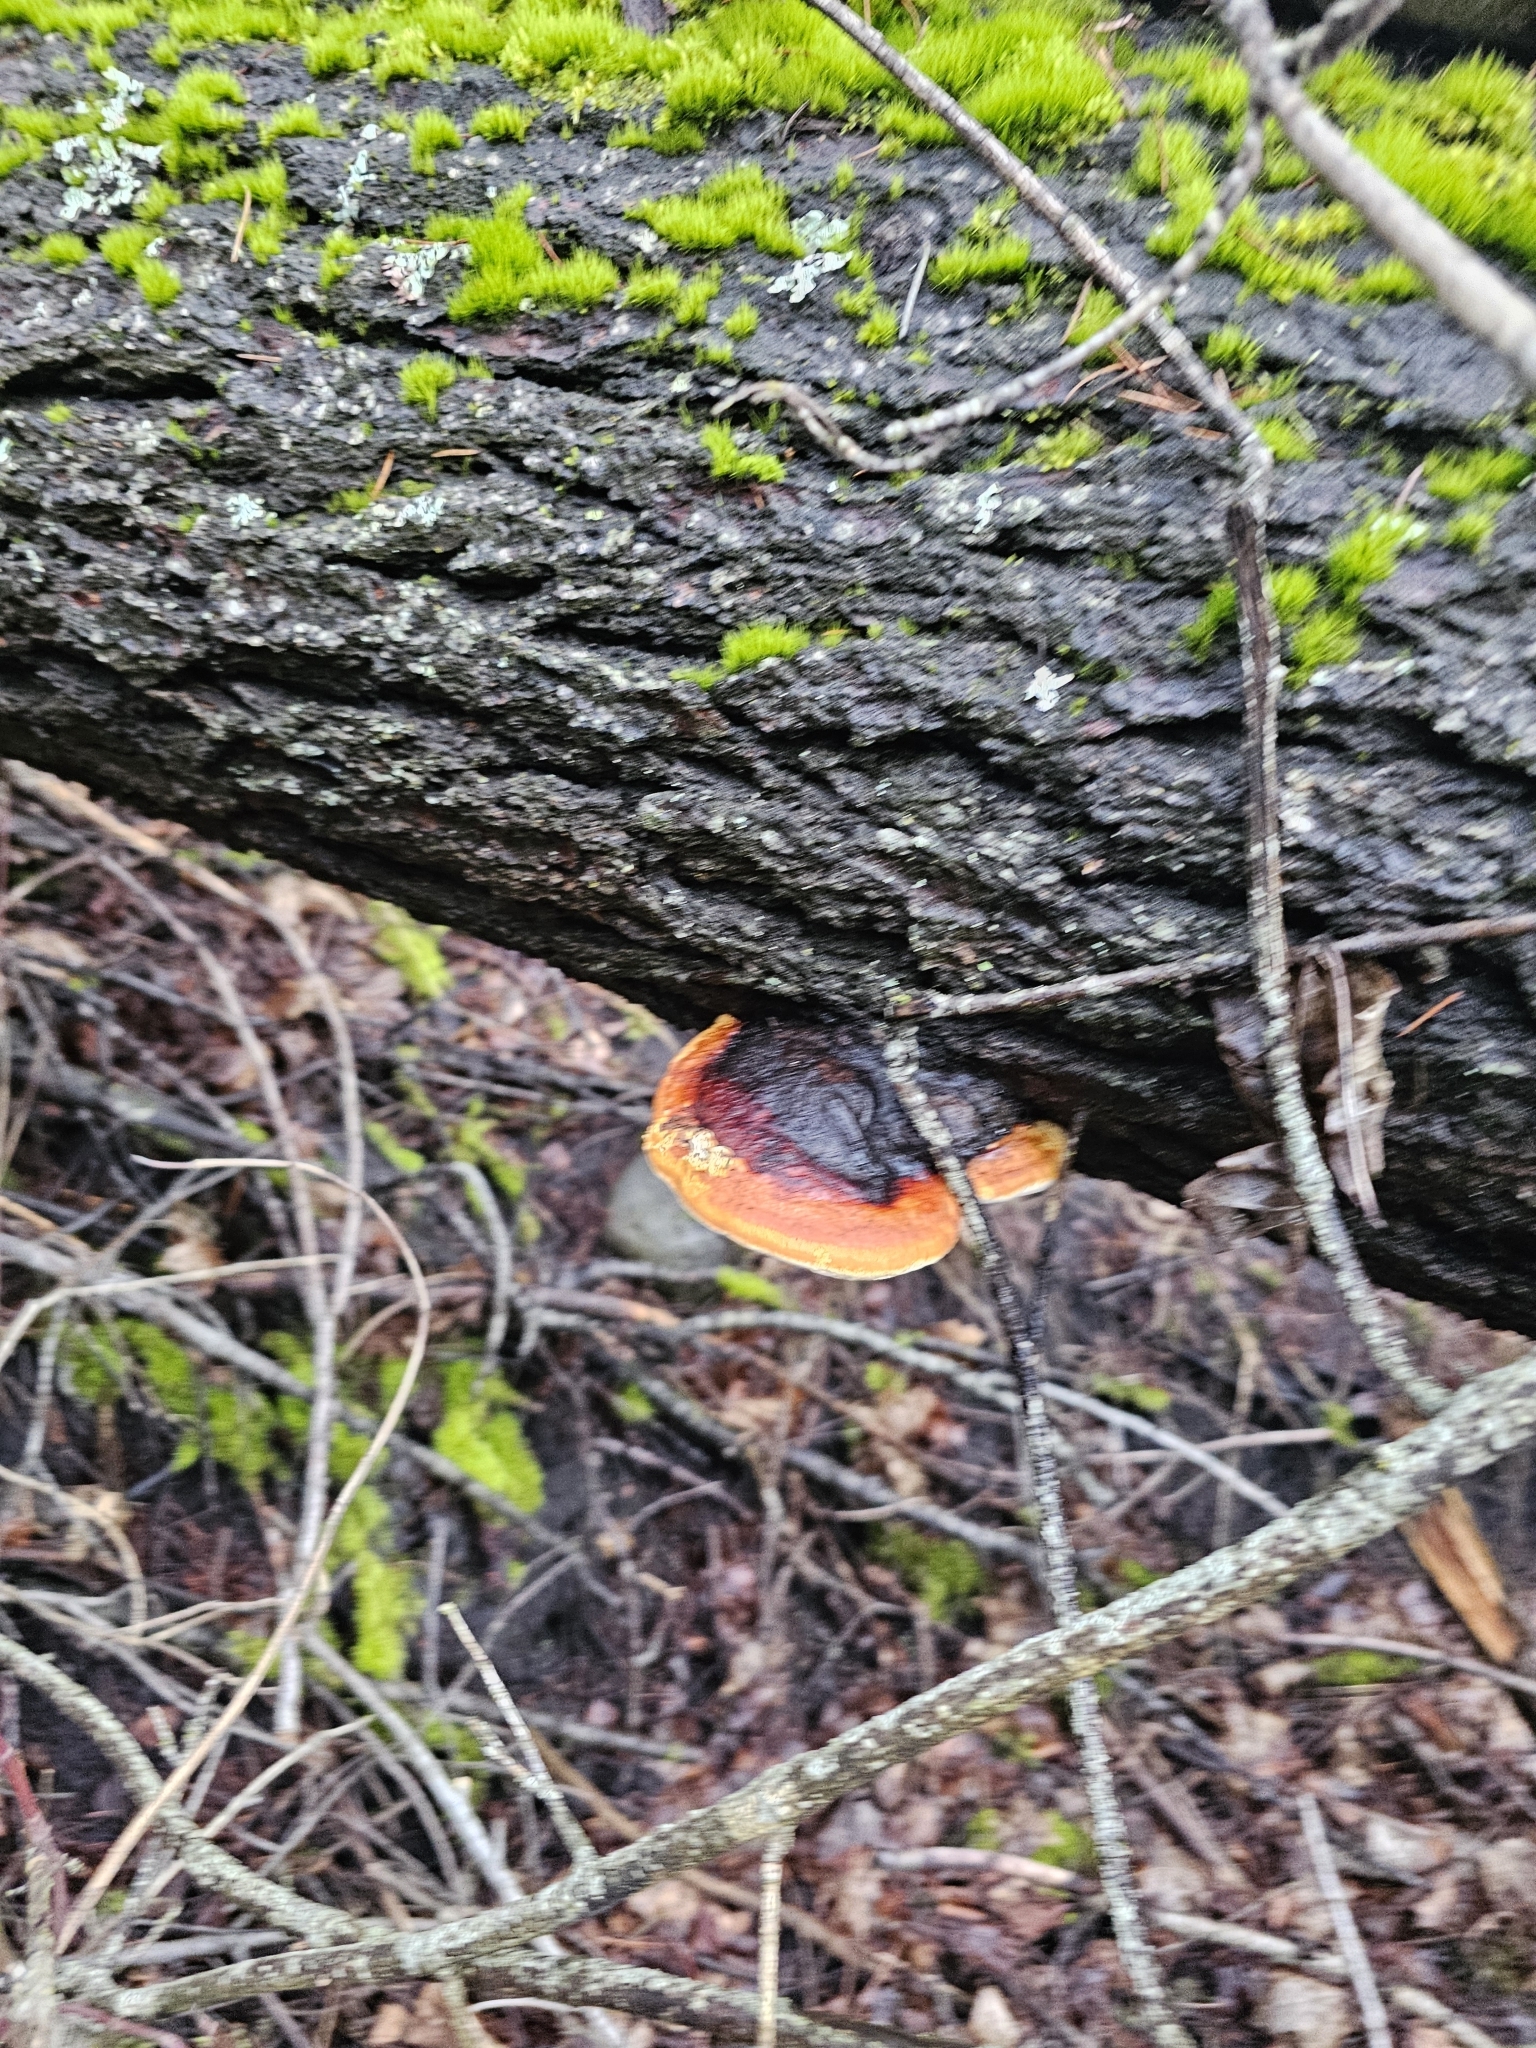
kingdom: Fungi
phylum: Basidiomycota
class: Agaricomycetes
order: Polyporales
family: Fomitopsidaceae
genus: Fomitopsis
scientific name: Fomitopsis mounceae
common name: Northern red belt
